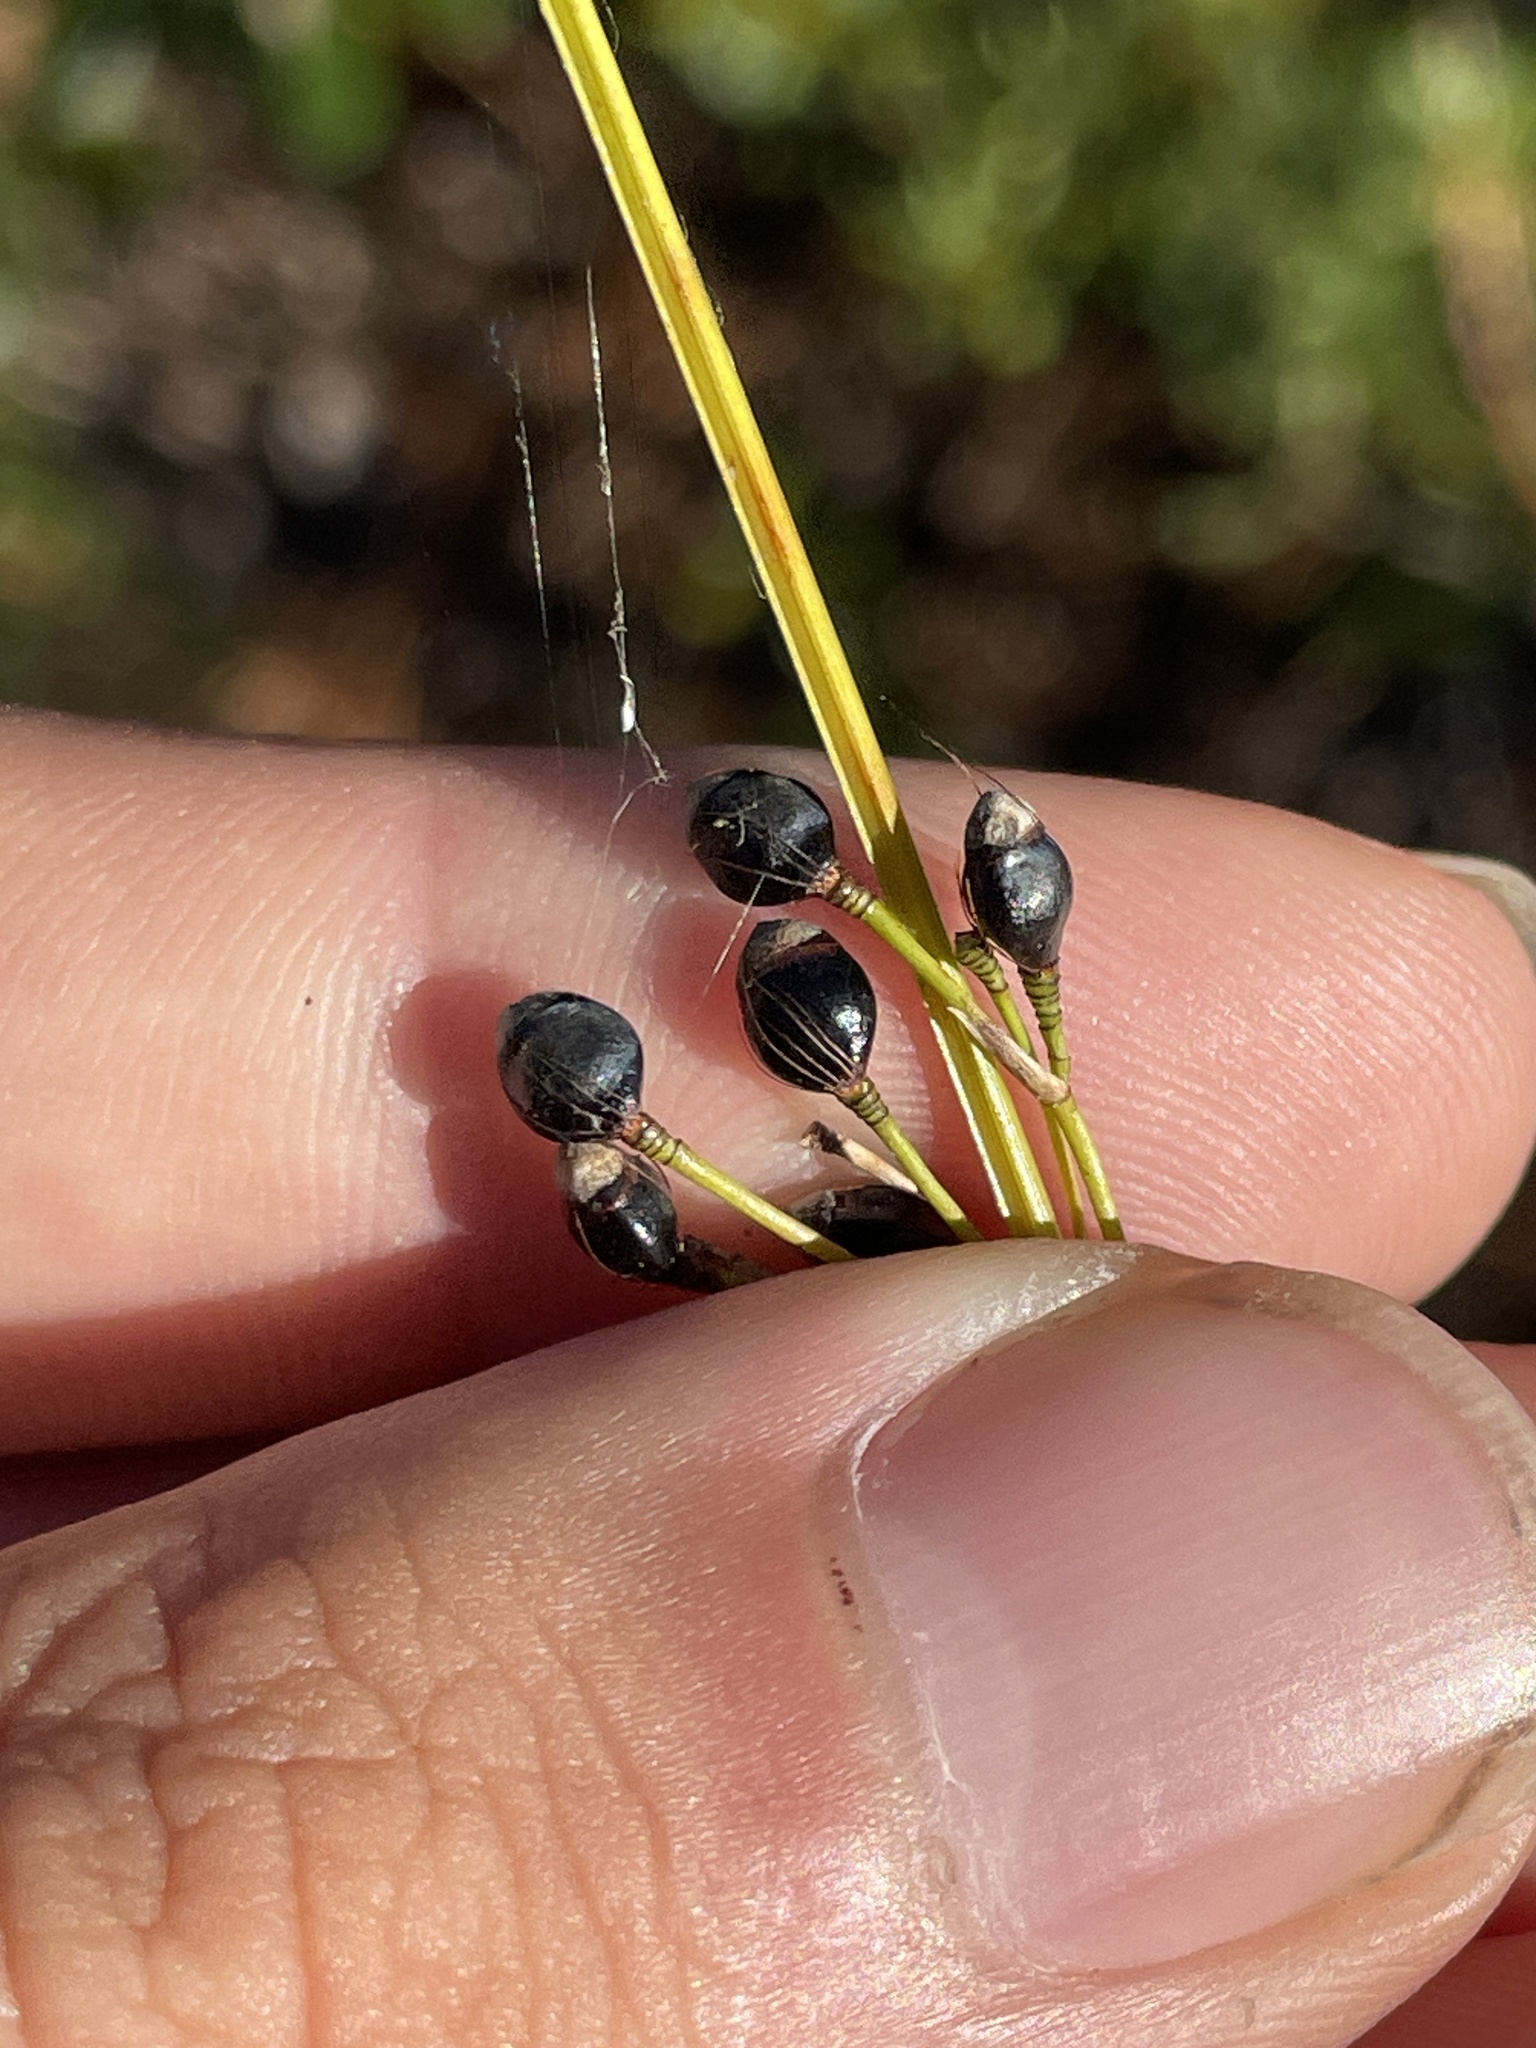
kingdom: Plantae
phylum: Tracheophyta
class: Liliopsida
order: Poales
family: Cyperaceae
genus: Rhynchospora
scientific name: Rhynchospora megalocarpa
